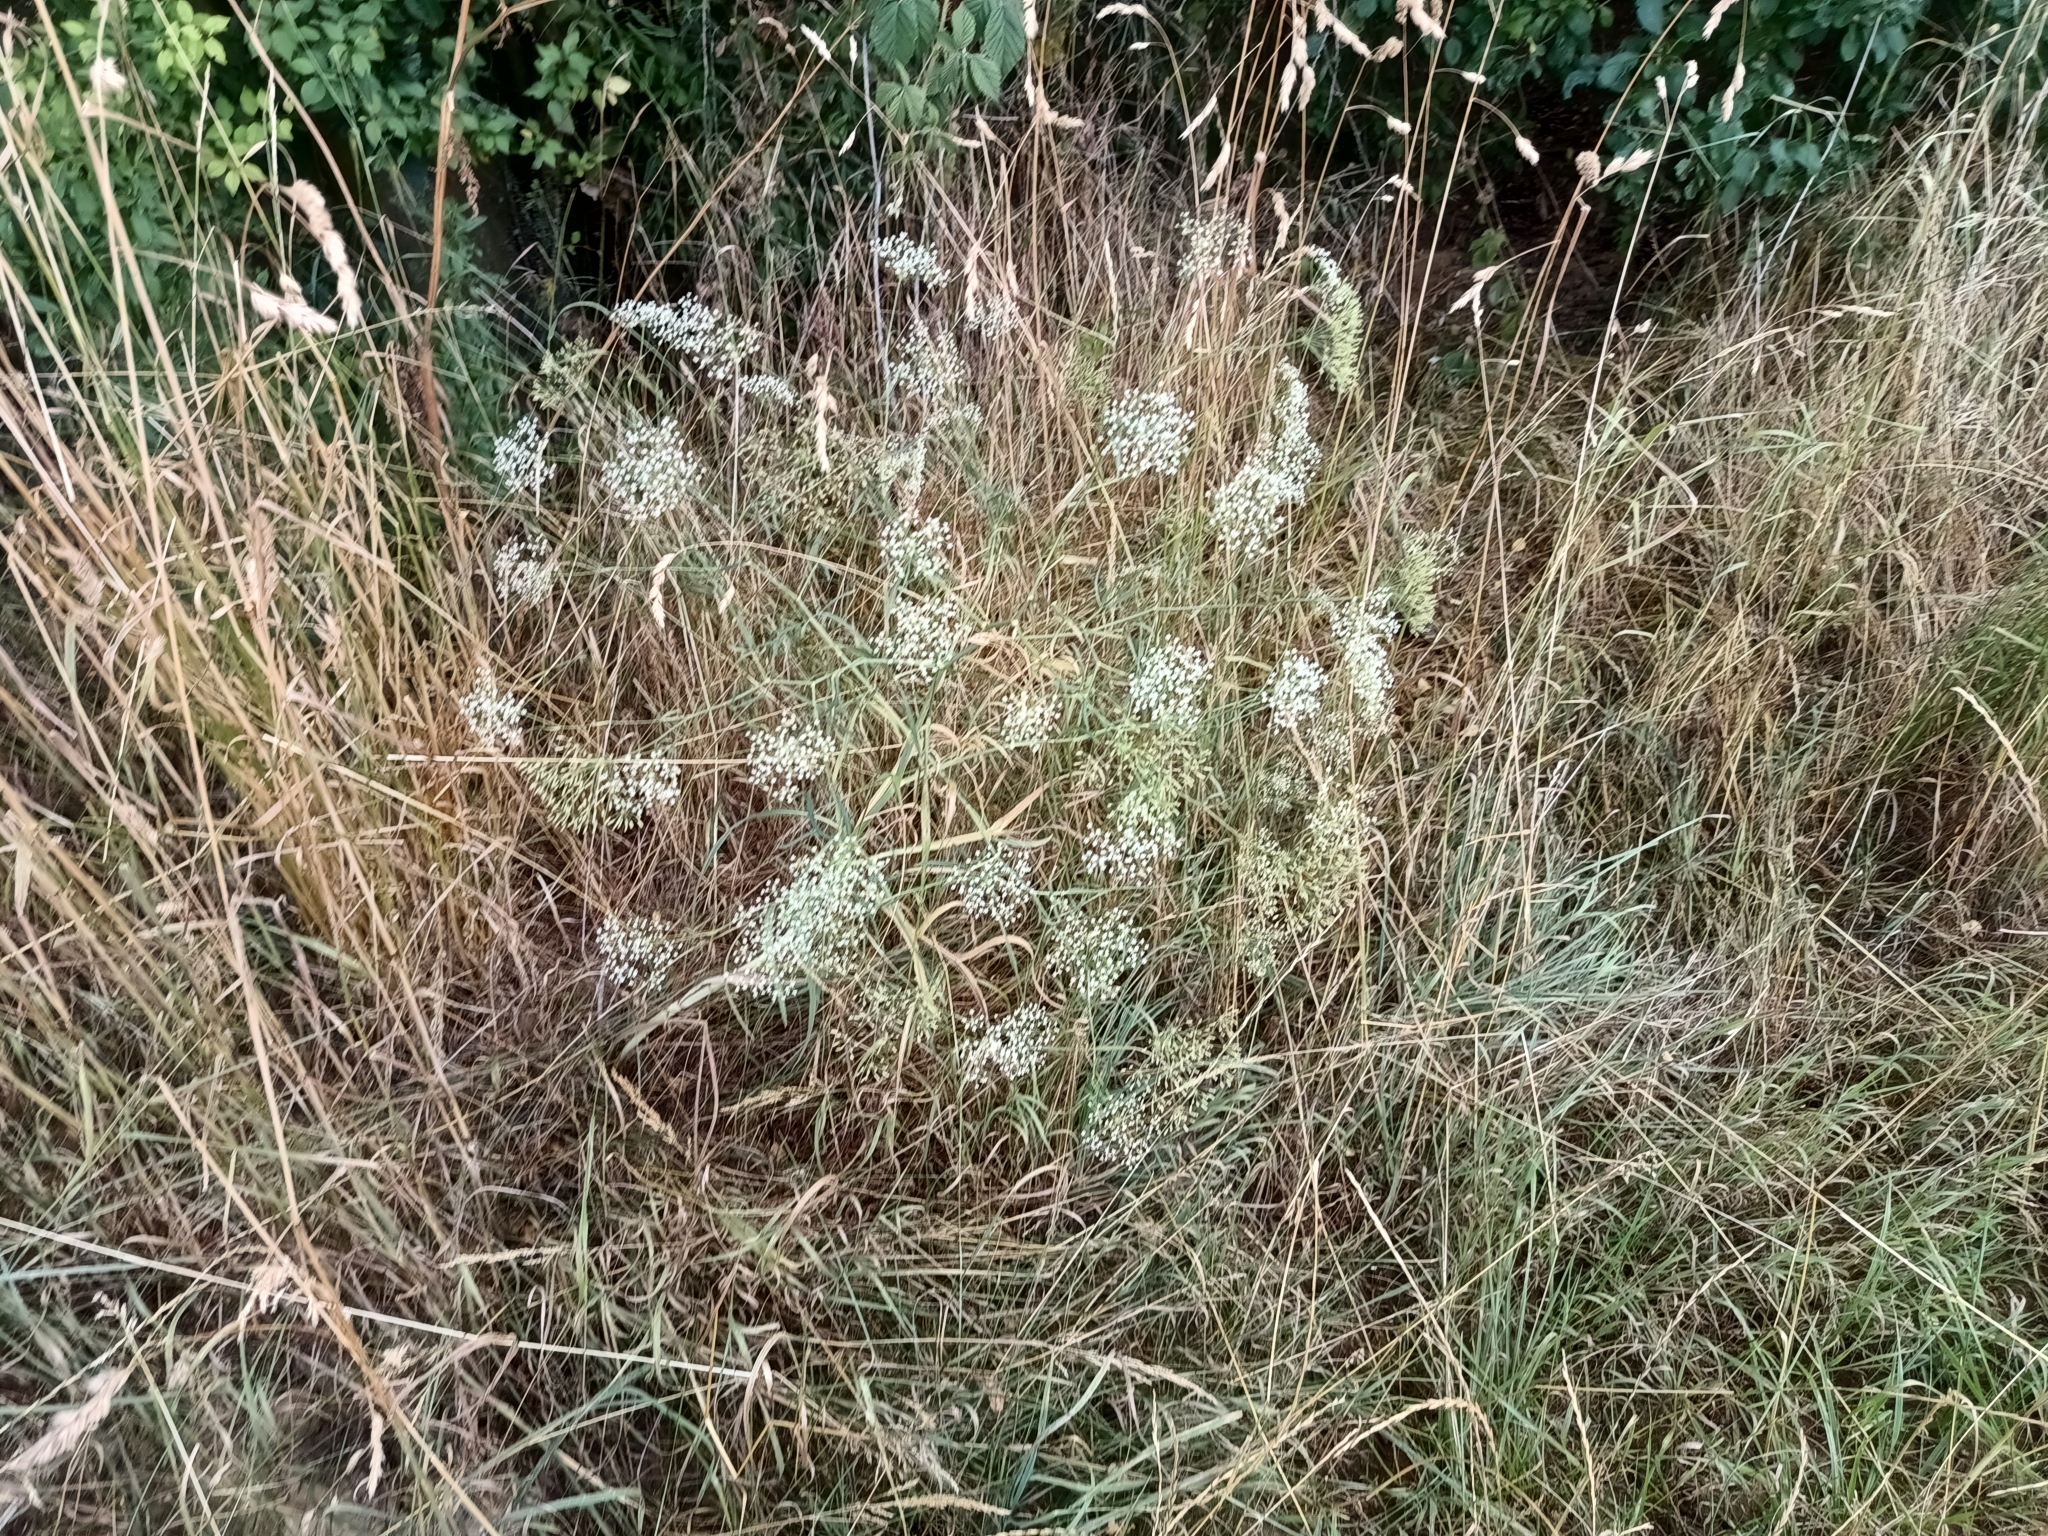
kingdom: Plantae
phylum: Tracheophyta
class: Magnoliopsida
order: Apiales
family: Apiaceae
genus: Falcaria
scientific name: Falcaria vulgaris
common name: Longleaf
